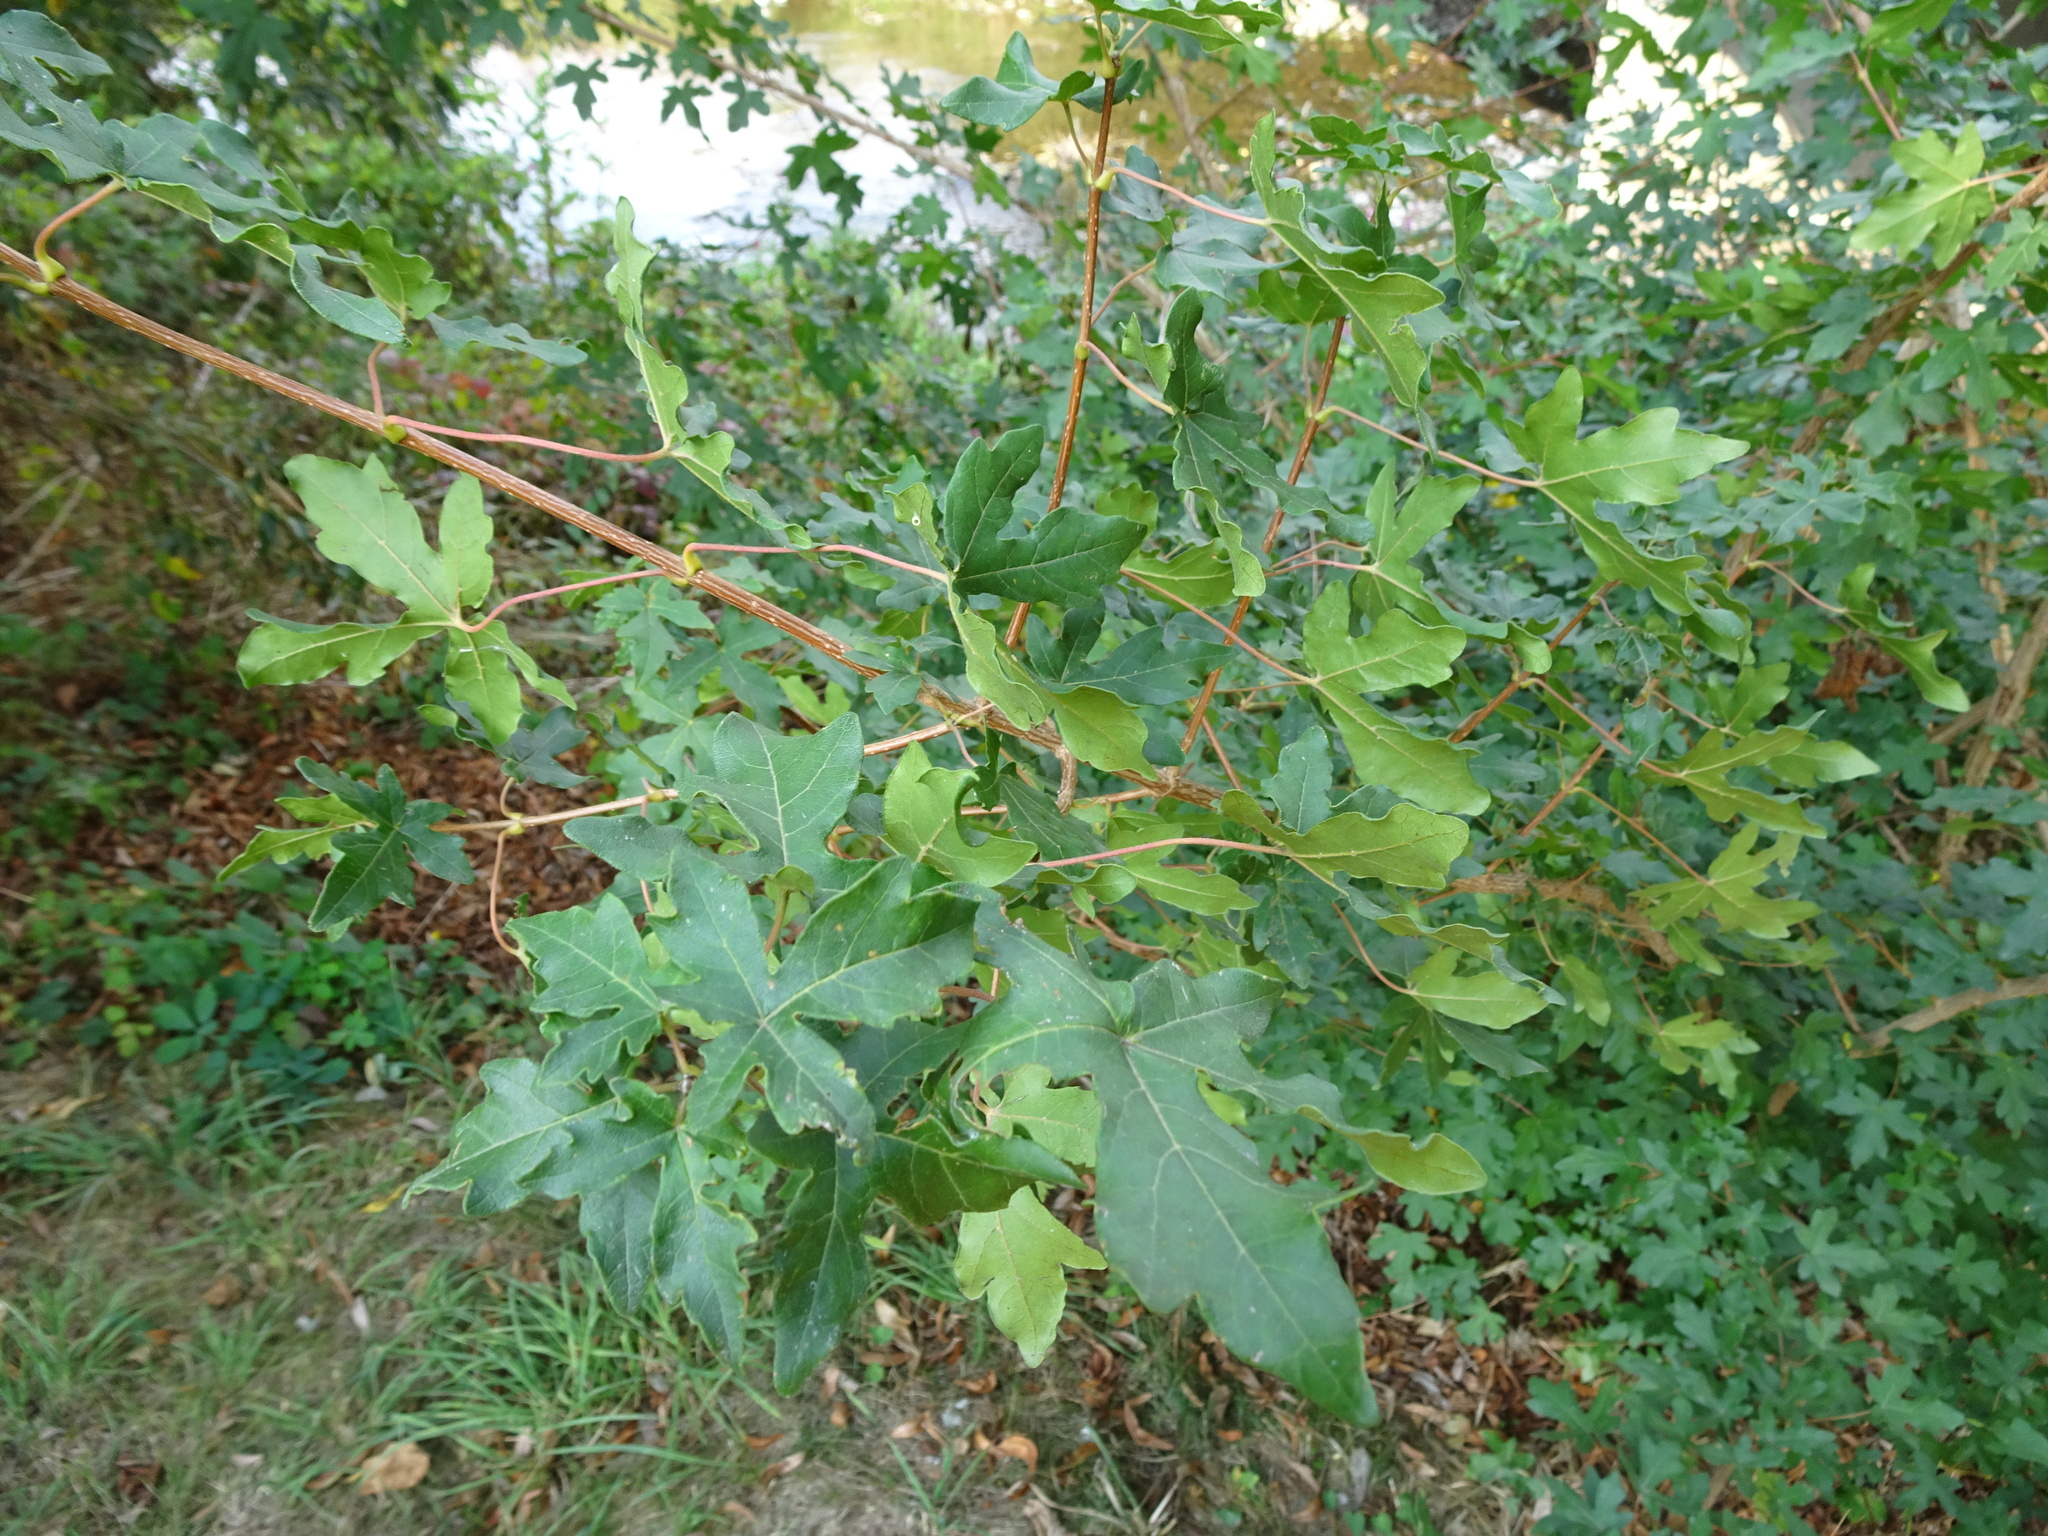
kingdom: Plantae
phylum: Tracheophyta
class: Magnoliopsida
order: Sapindales
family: Sapindaceae
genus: Acer
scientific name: Acer campestre
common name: Field maple
